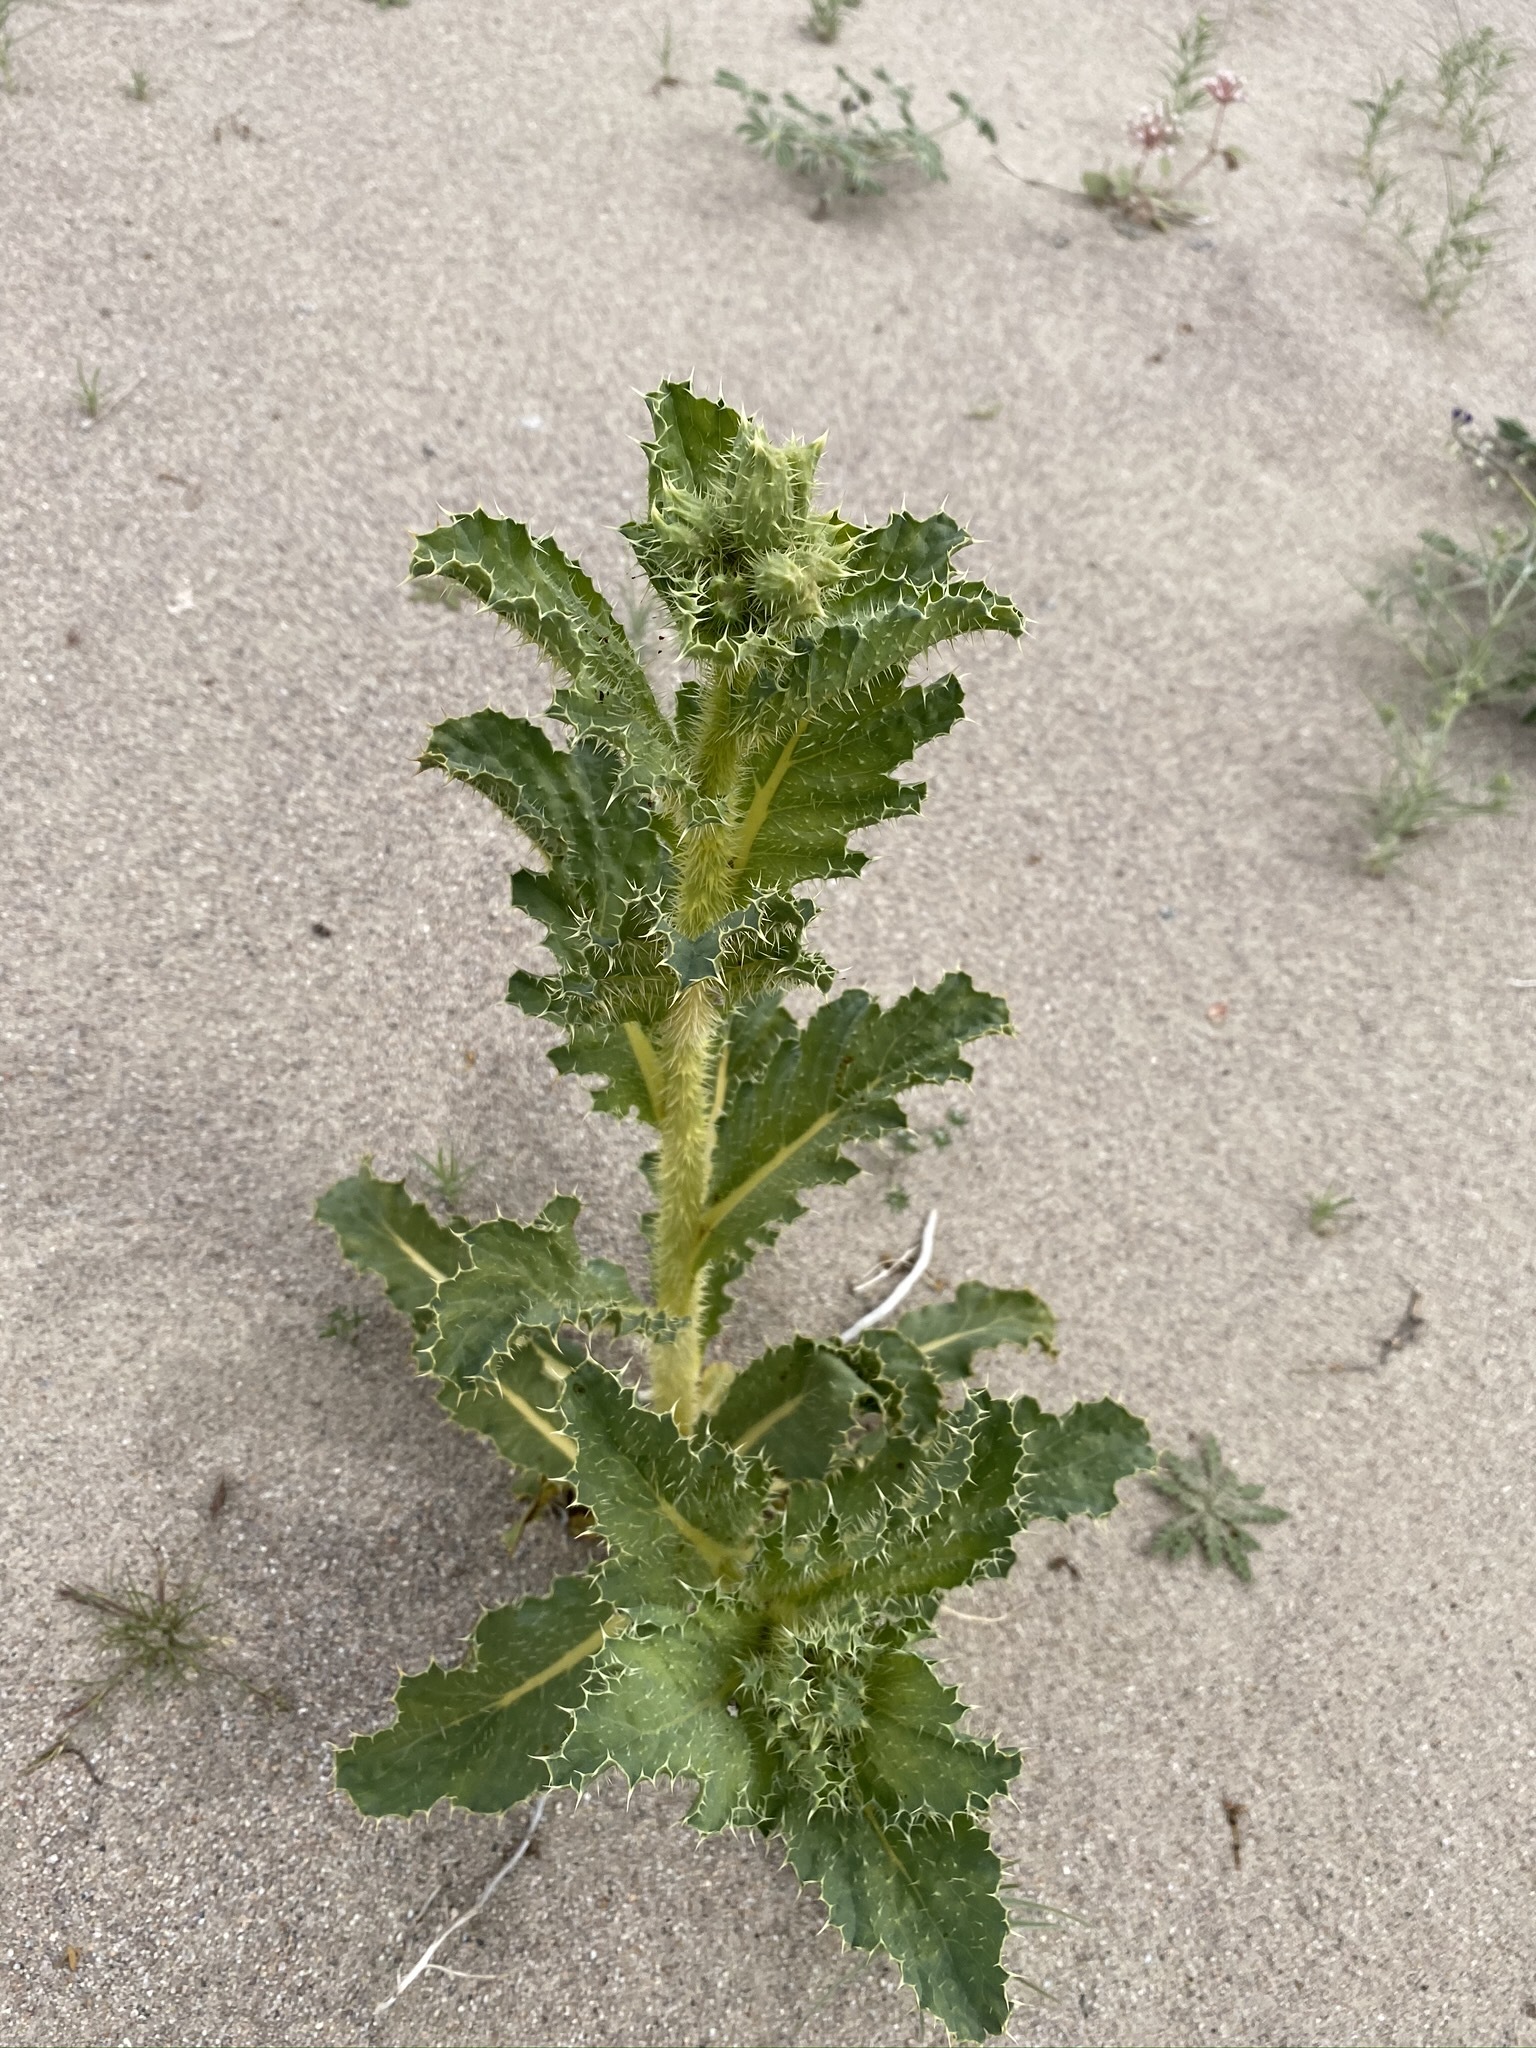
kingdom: Plantae
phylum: Tracheophyta
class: Magnoliopsida
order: Ranunculales
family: Papaveraceae
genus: Argemone
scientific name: Argemone corymbosa
